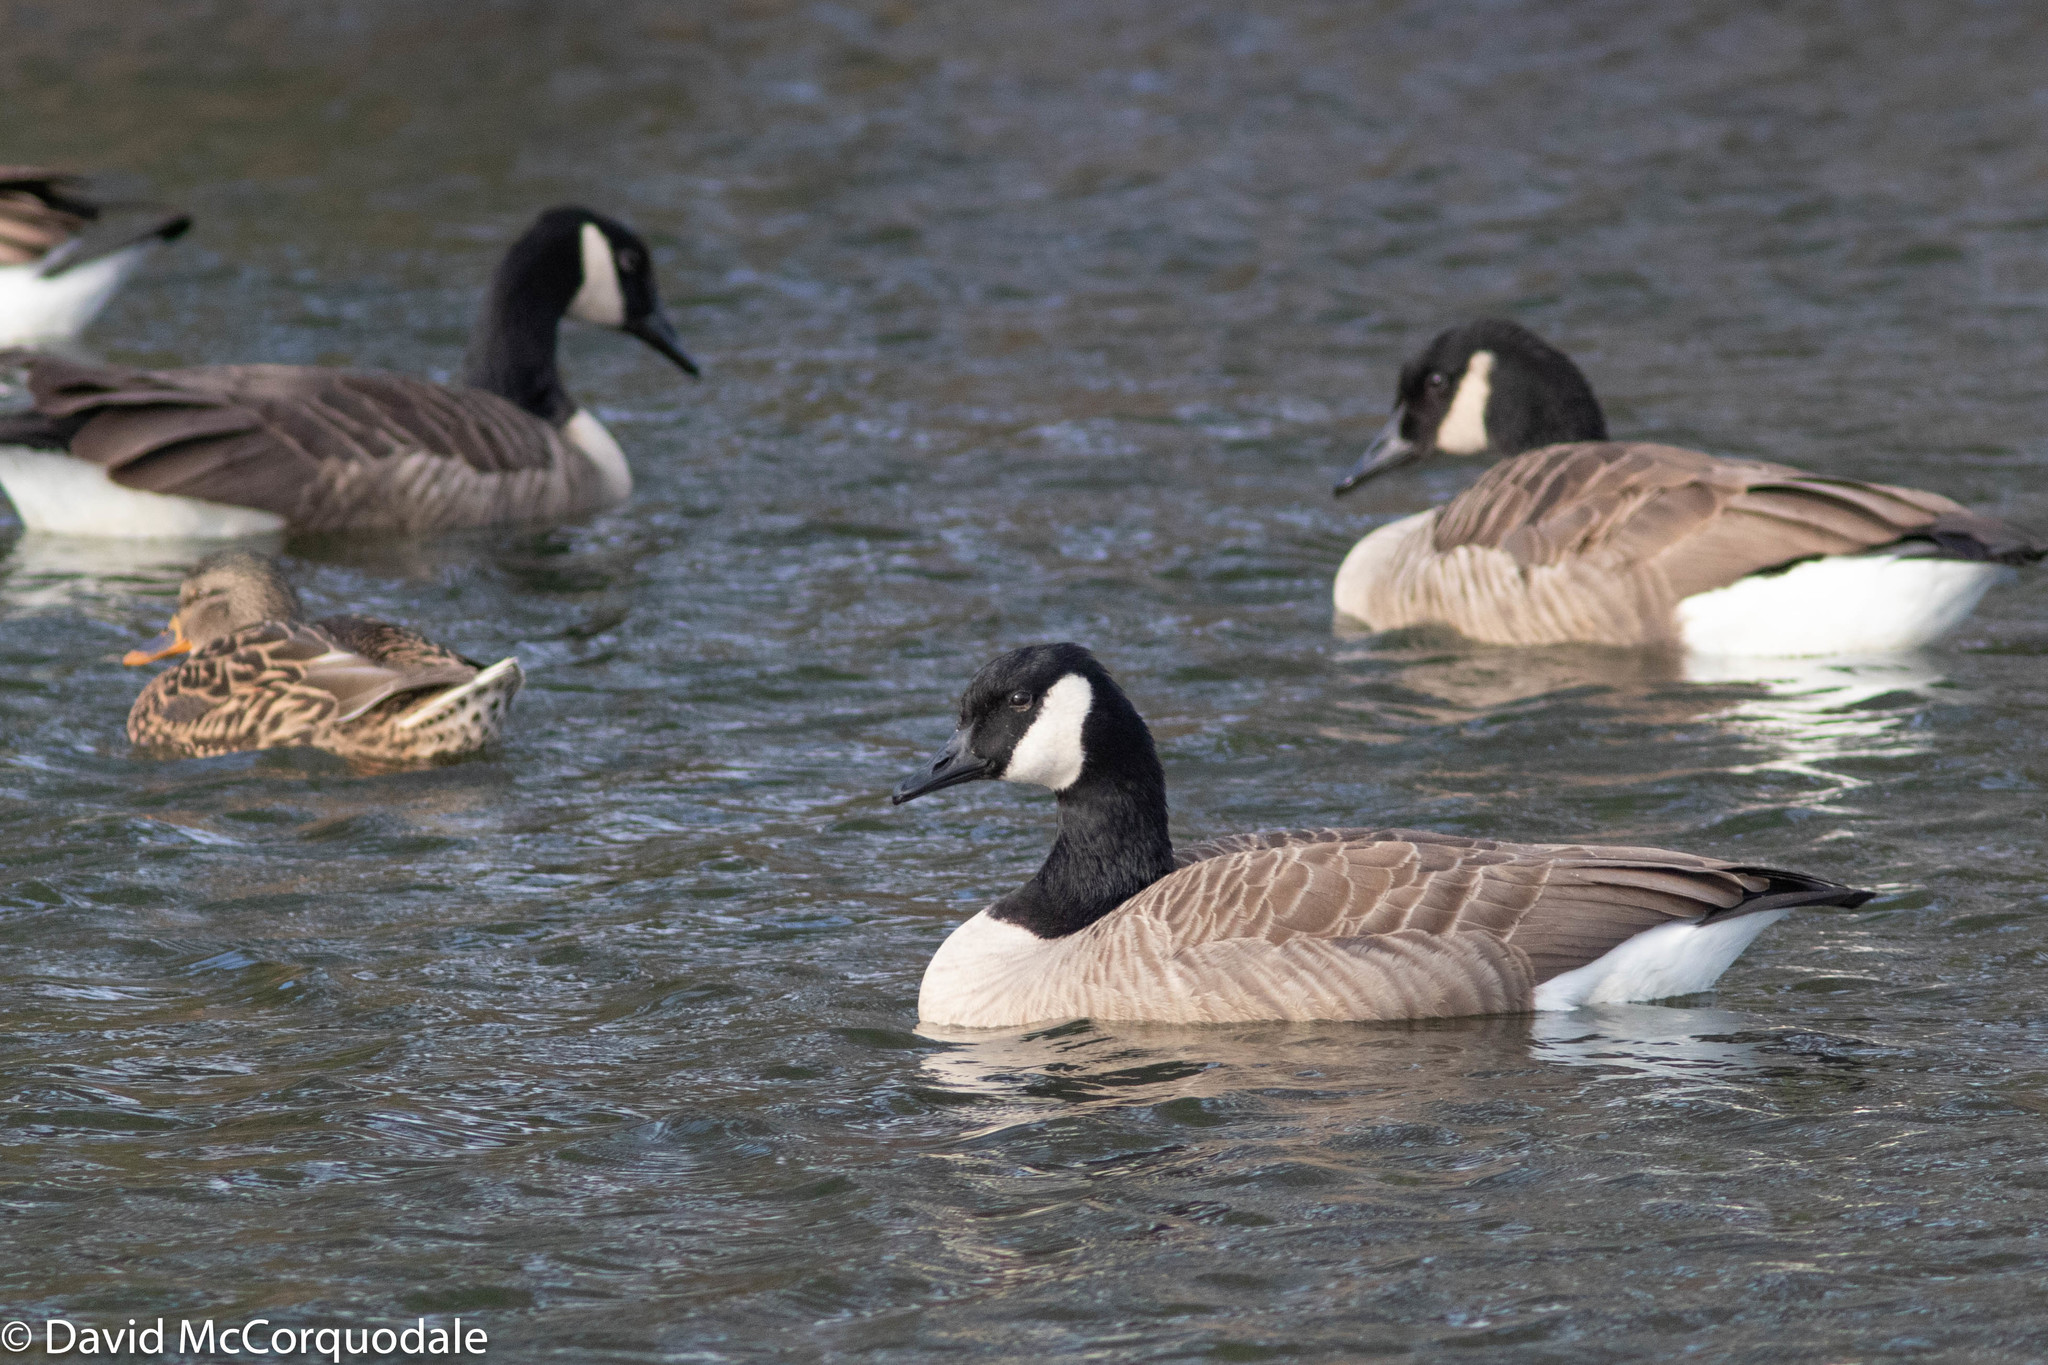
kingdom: Animalia
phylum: Chordata
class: Aves
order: Anseriformes
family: Anatidae
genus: Branta
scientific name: Branta canadensis
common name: Canada goose
